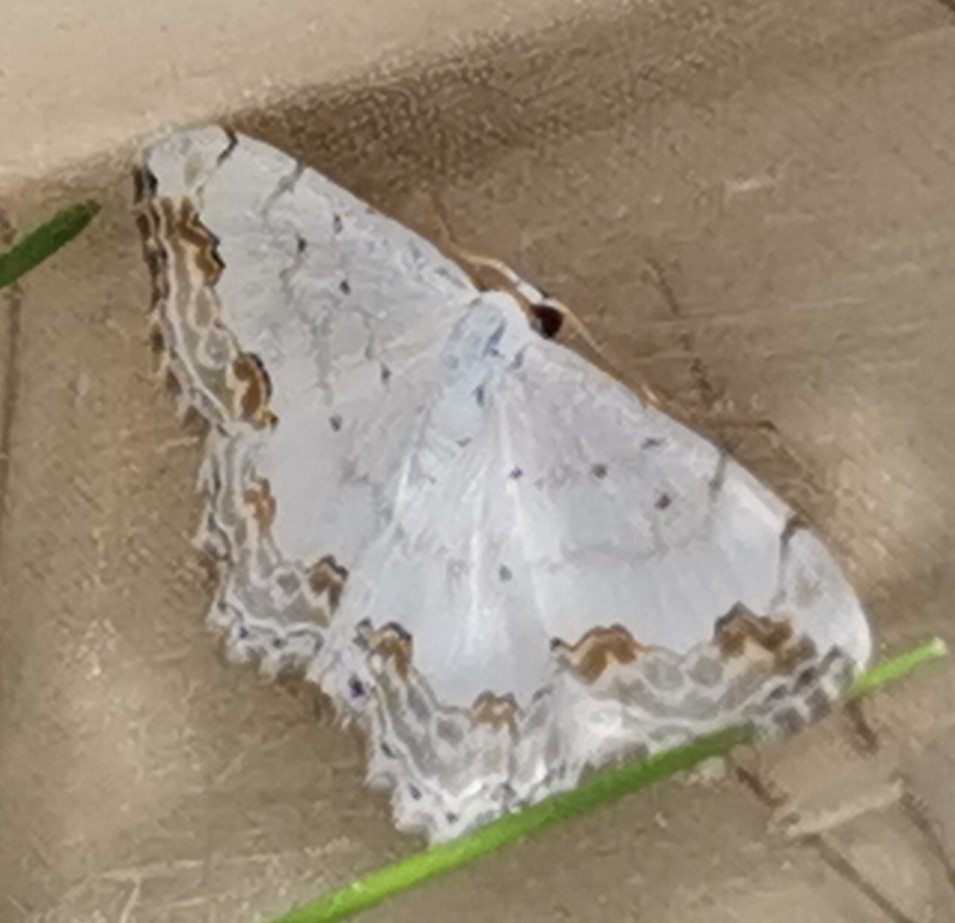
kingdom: Animalia
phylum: Arthropoda
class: Insecta
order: Lepidoptera
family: Geometridae
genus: Scopula
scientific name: Scopula ornata
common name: Lace border
